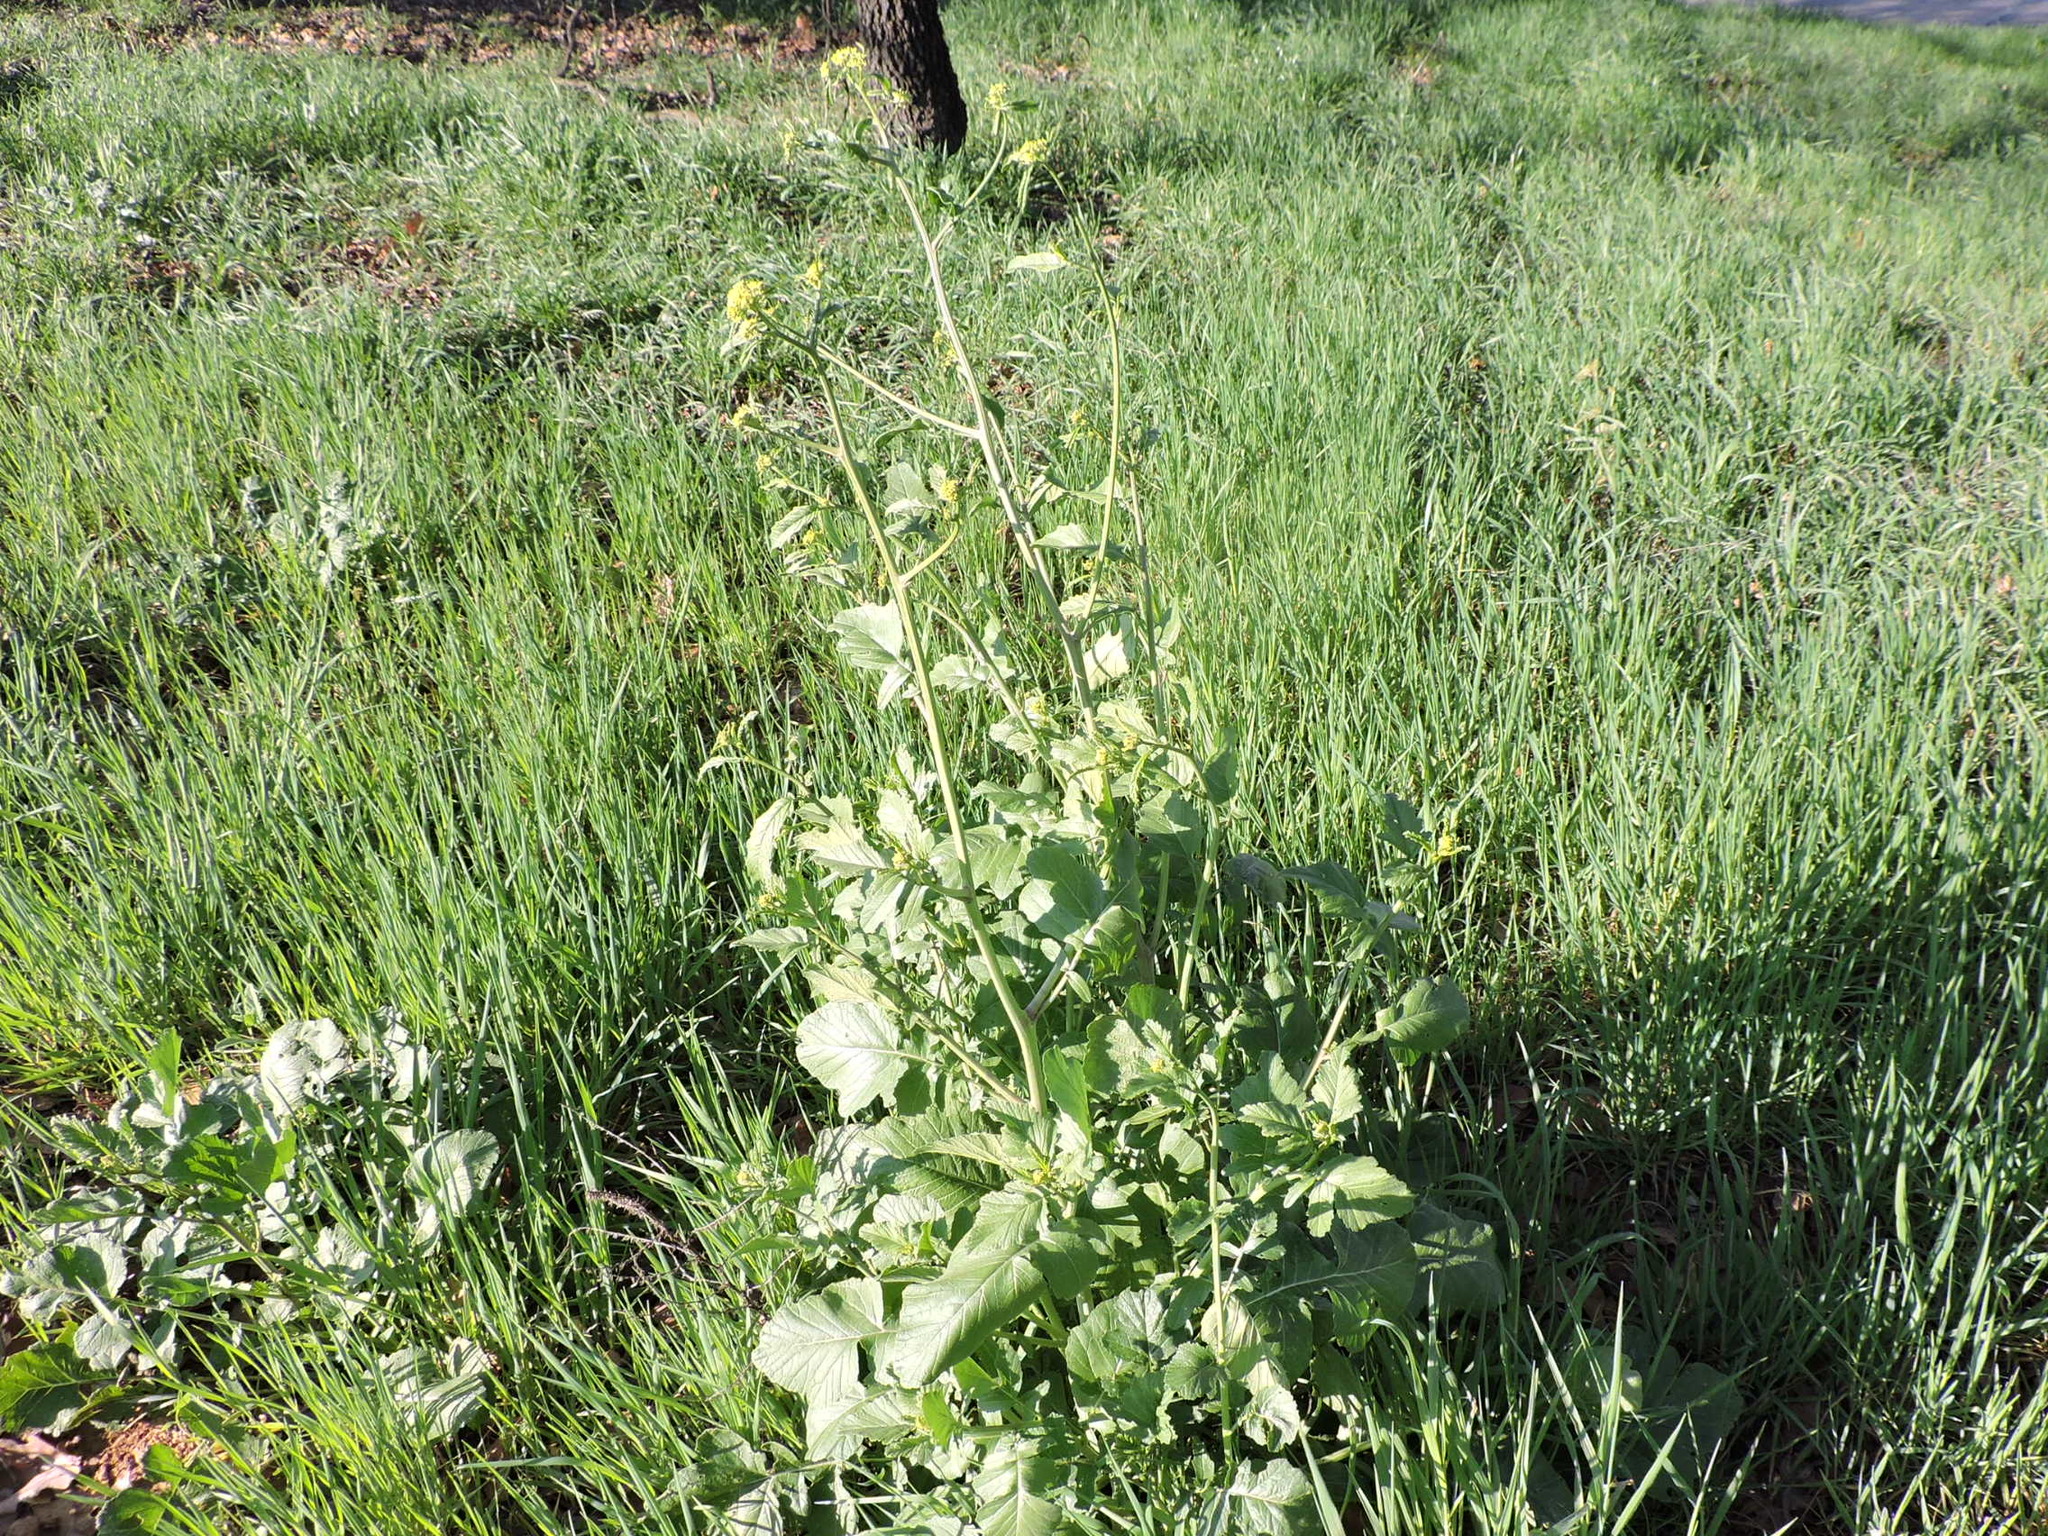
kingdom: Plantae
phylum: Tracheophyta
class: Magnoliopsida
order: Brassicales
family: Brassicaceae
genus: Rapistrum
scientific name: Rapistrum rugosum
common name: Annual bastardcabbage
